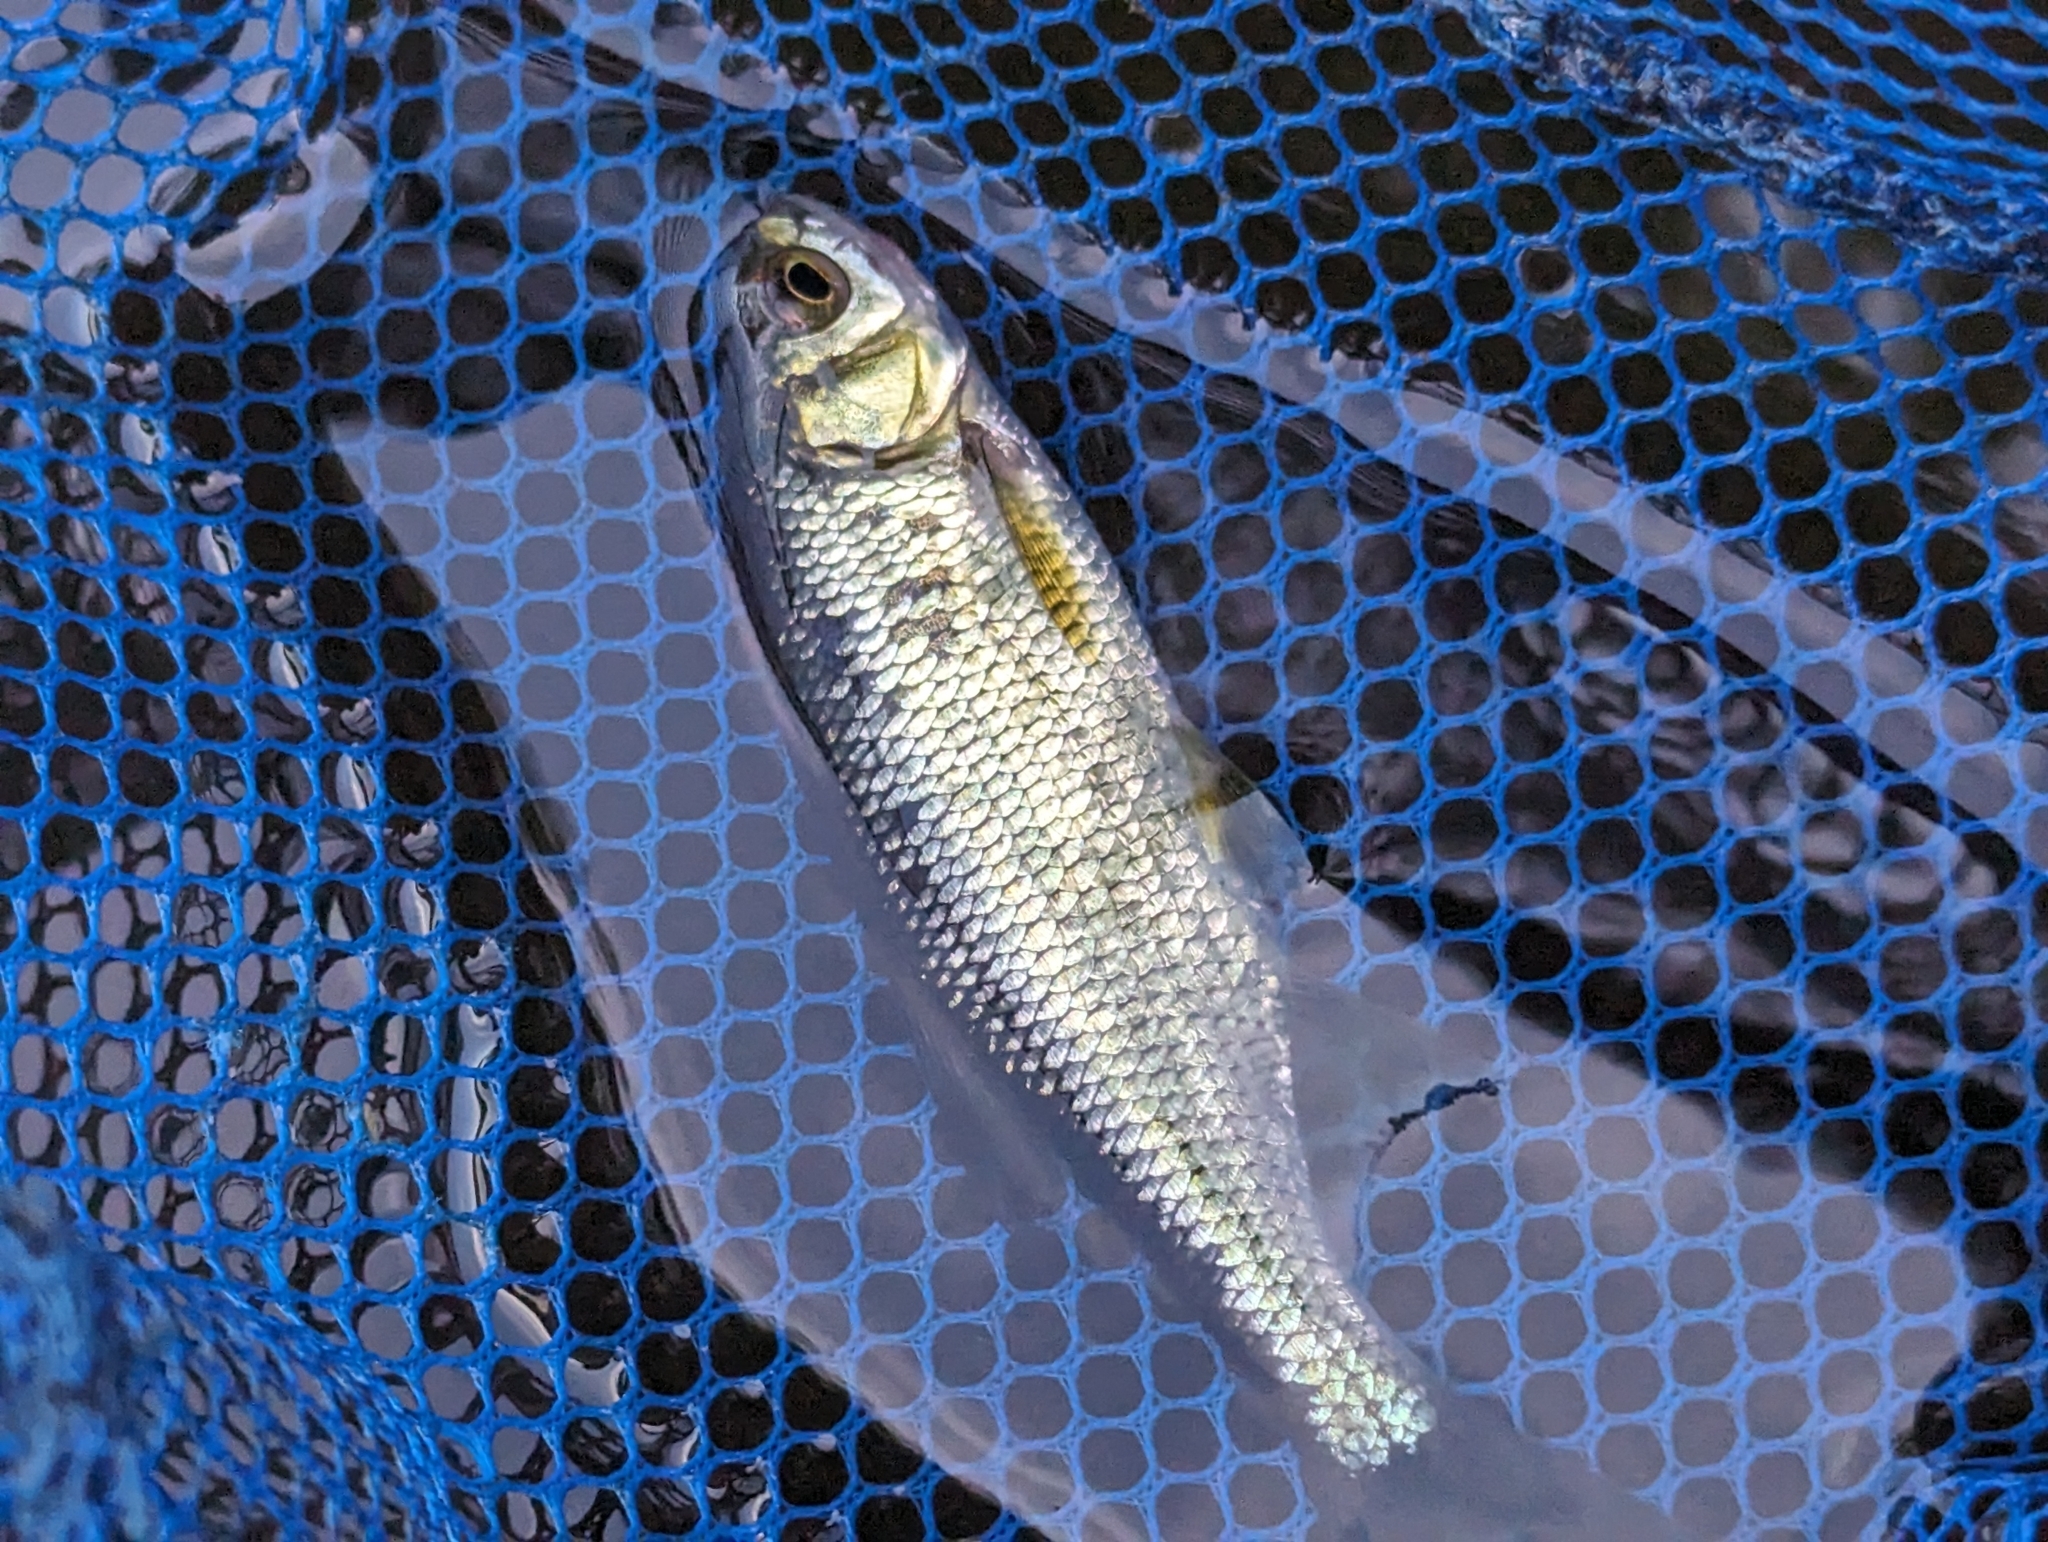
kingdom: Animalia
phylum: Chordata
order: Cypriniformes
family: Cyprinidae
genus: Notemigonus
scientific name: Notemigonus crysoleucas
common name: Golden shiner
